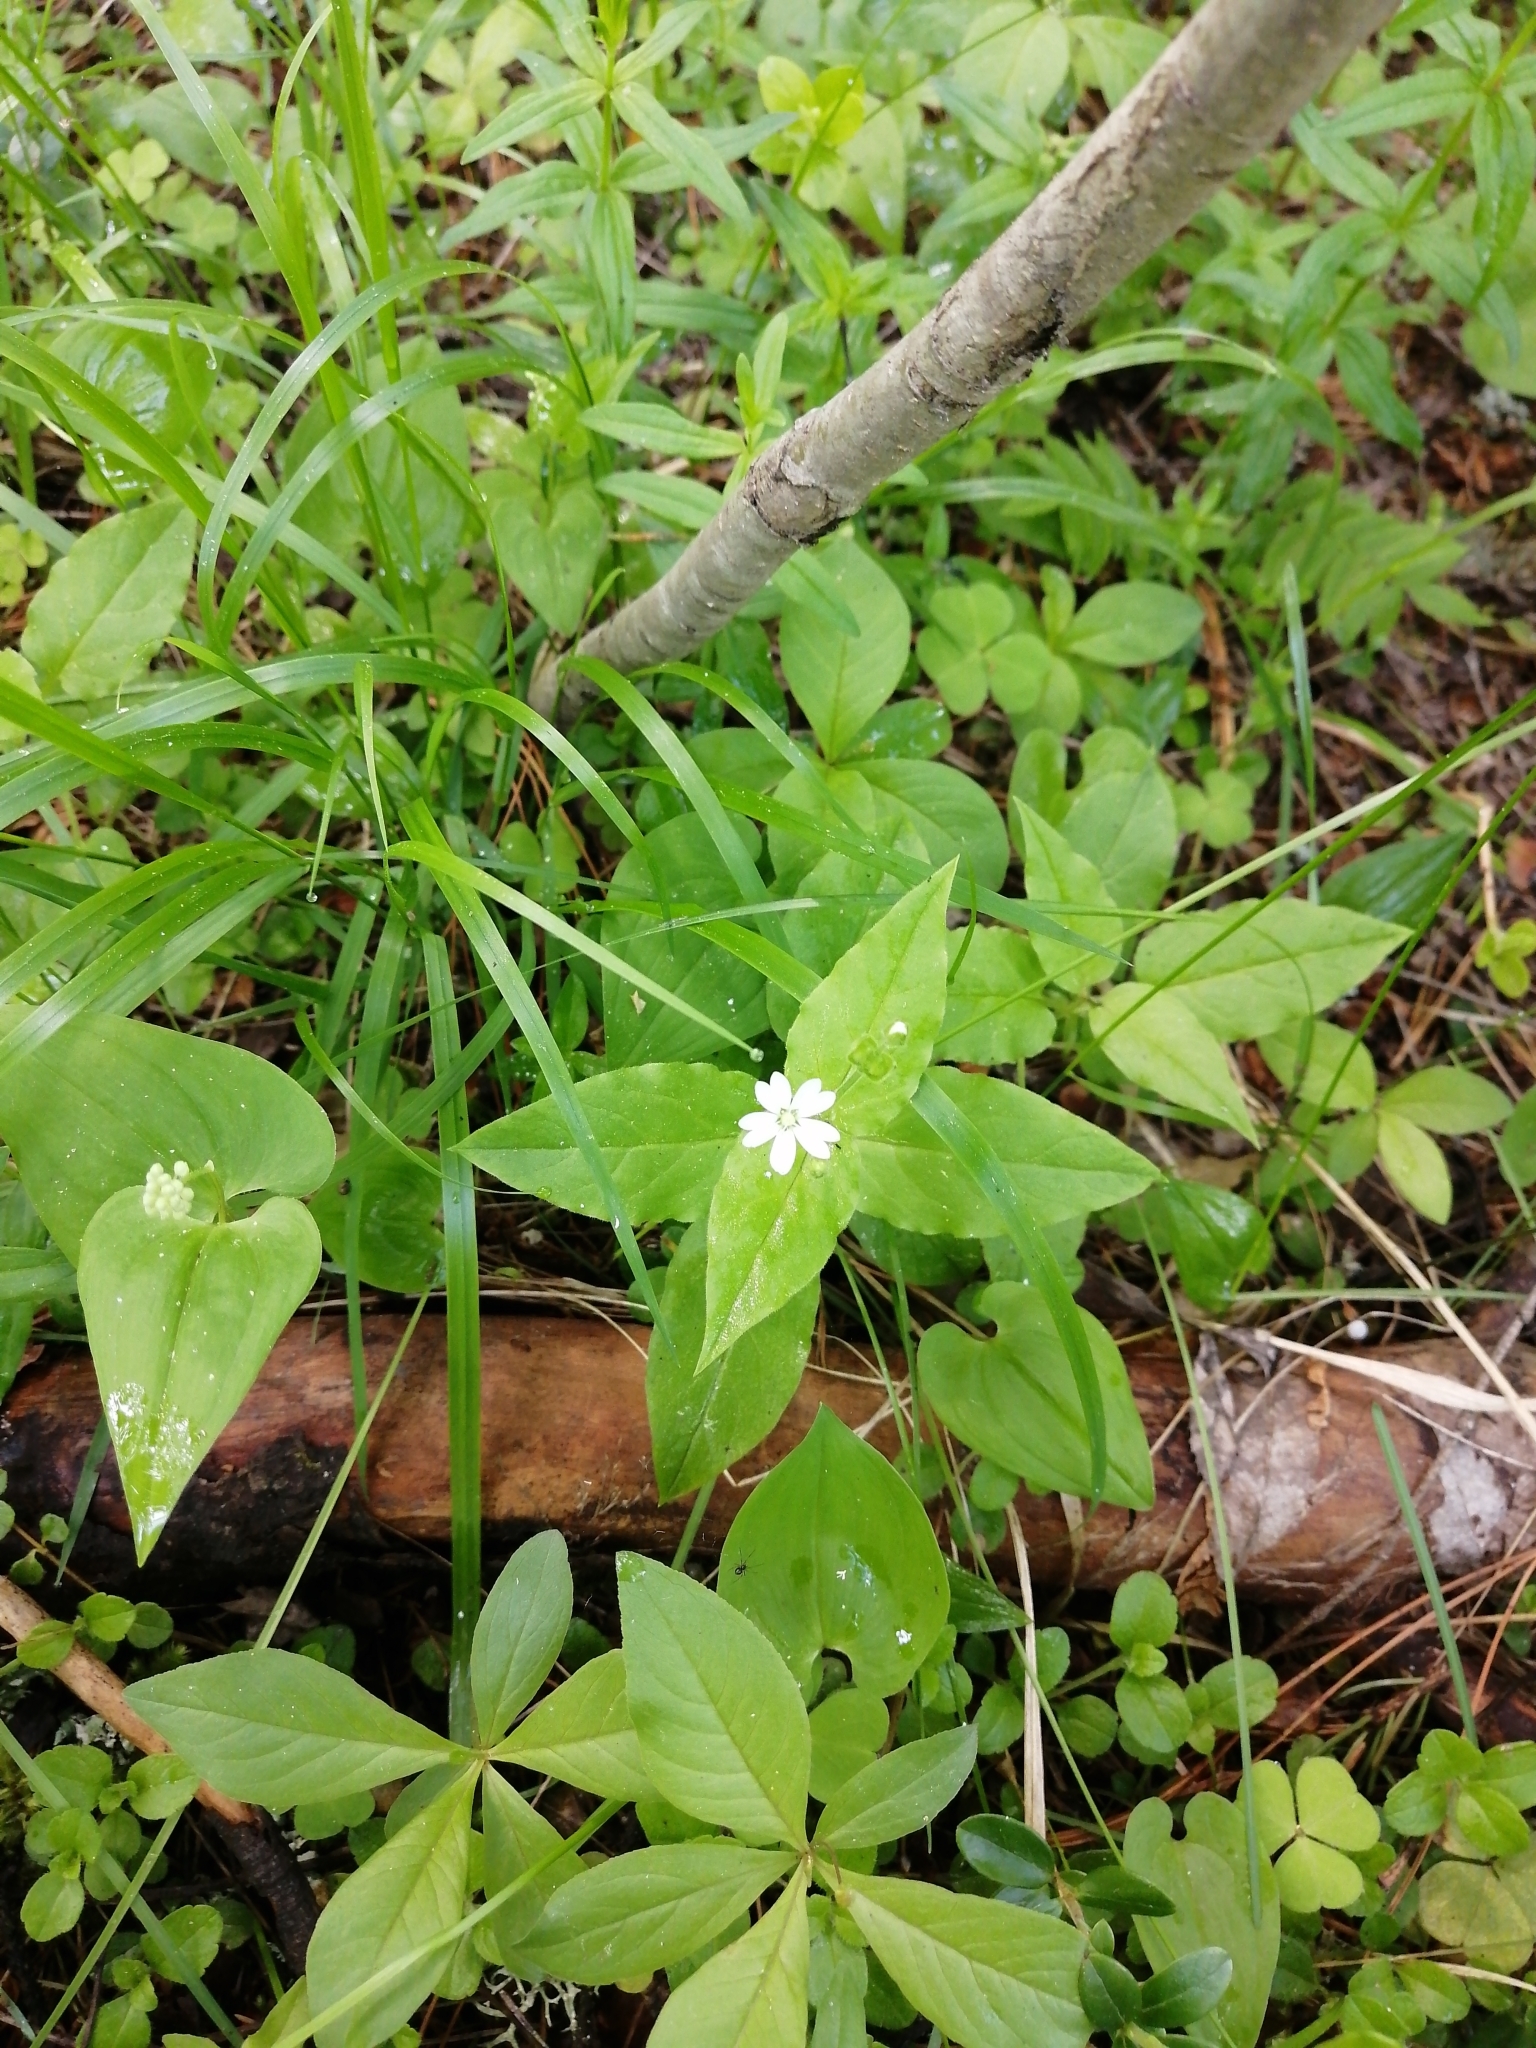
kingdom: Plantae
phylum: Tracheophyta
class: Magnoliopsida
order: Caryophyllales
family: Caryophyllaceae
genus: Stellaria
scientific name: Stellaria bungeana
